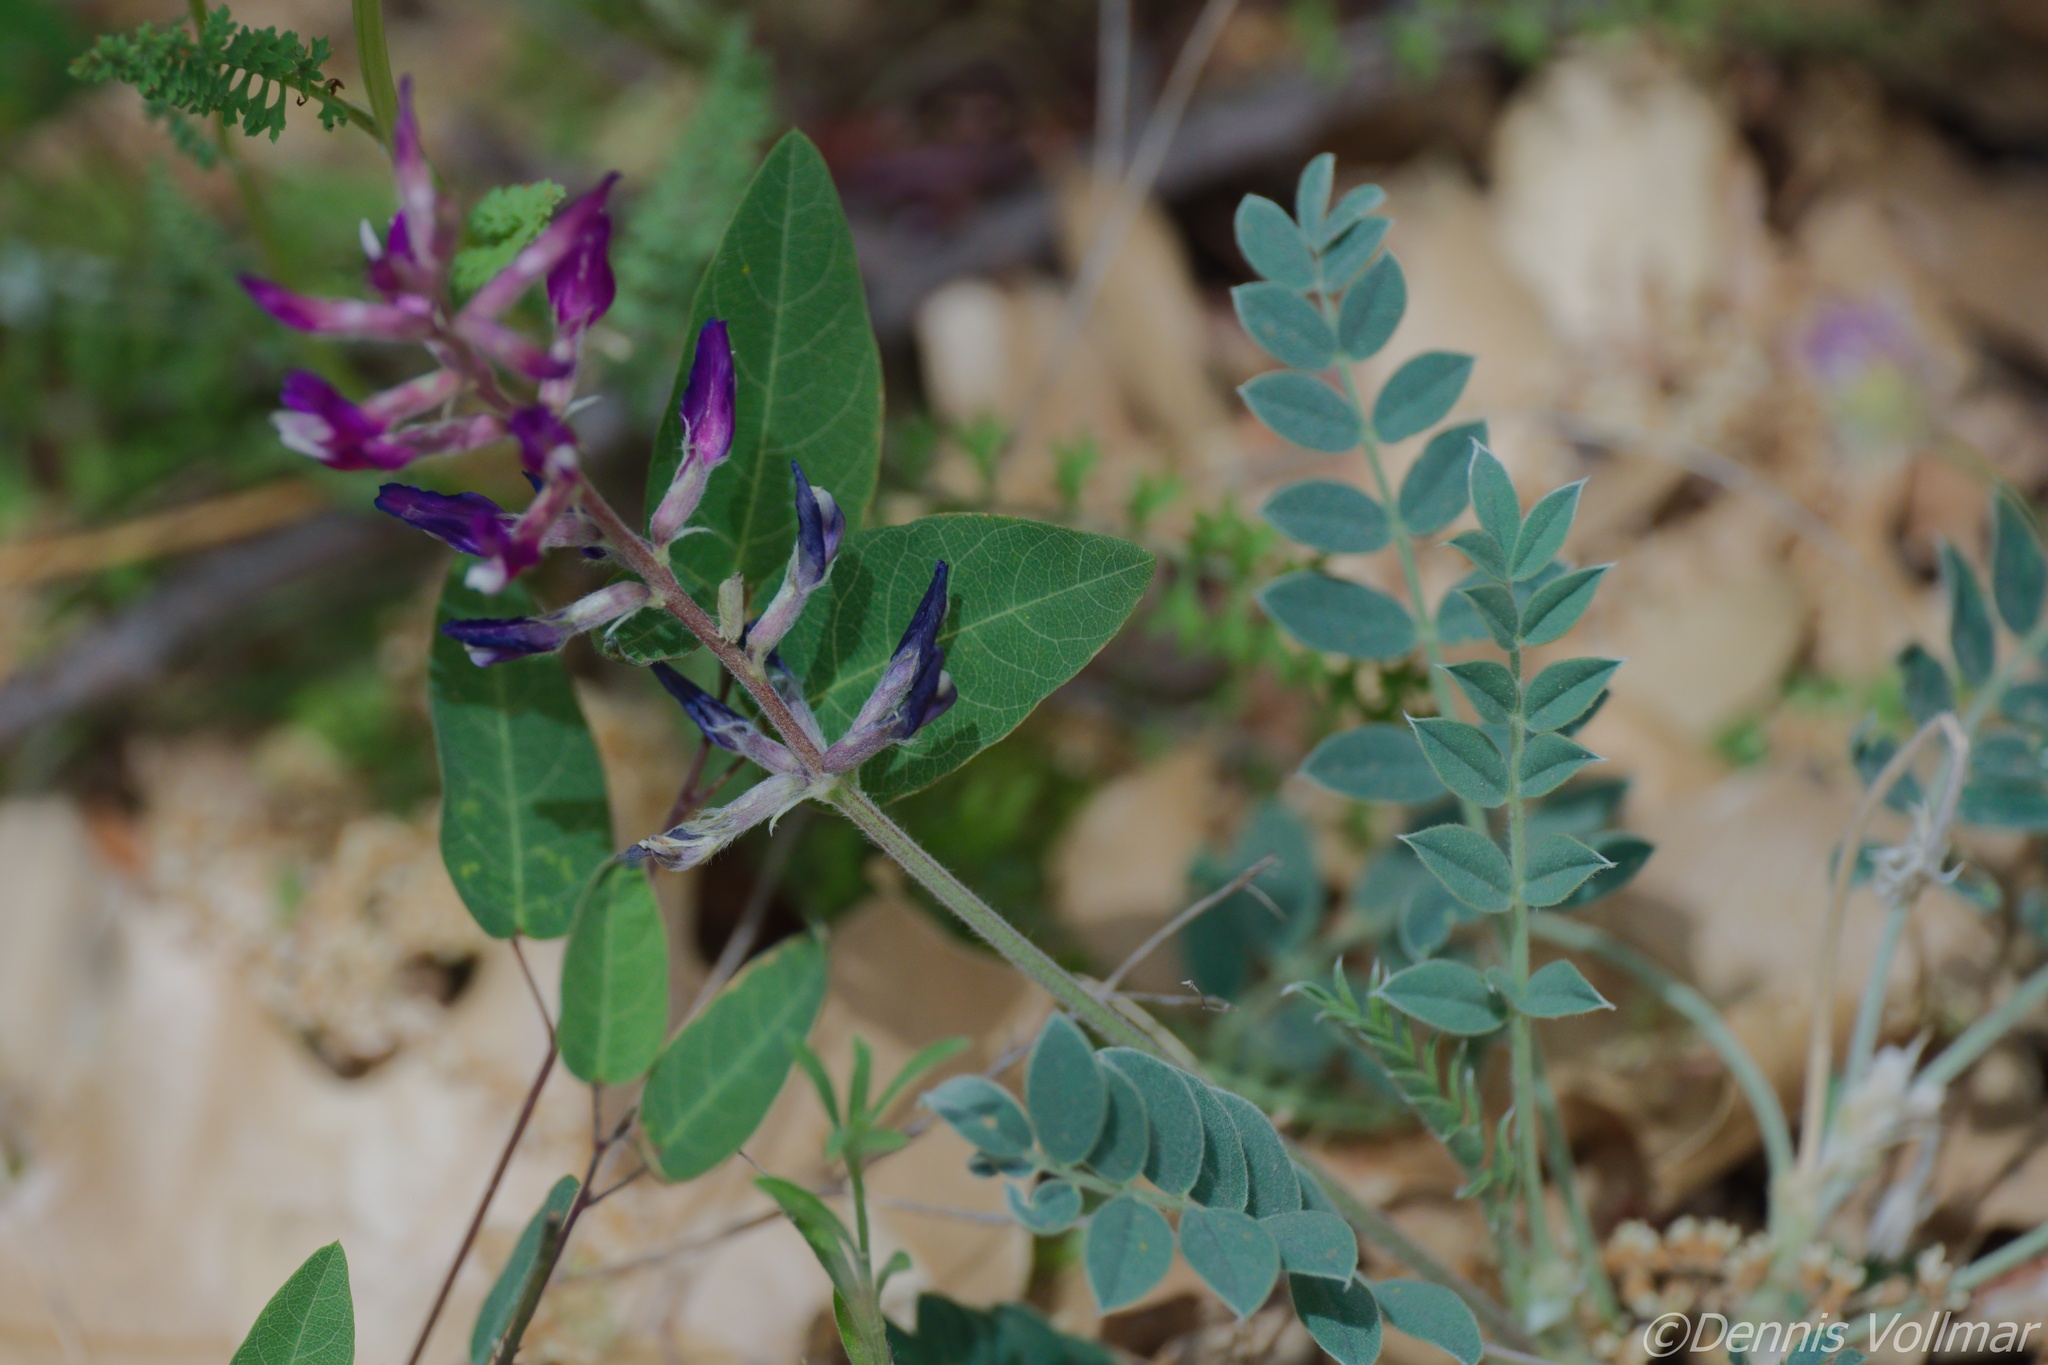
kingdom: Plantae
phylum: Tracheophyta
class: Magnoliopsida
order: Fabales
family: Fabaceae
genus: Astragalus
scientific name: Astragalus mollissimus
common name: Woolly locoweed
